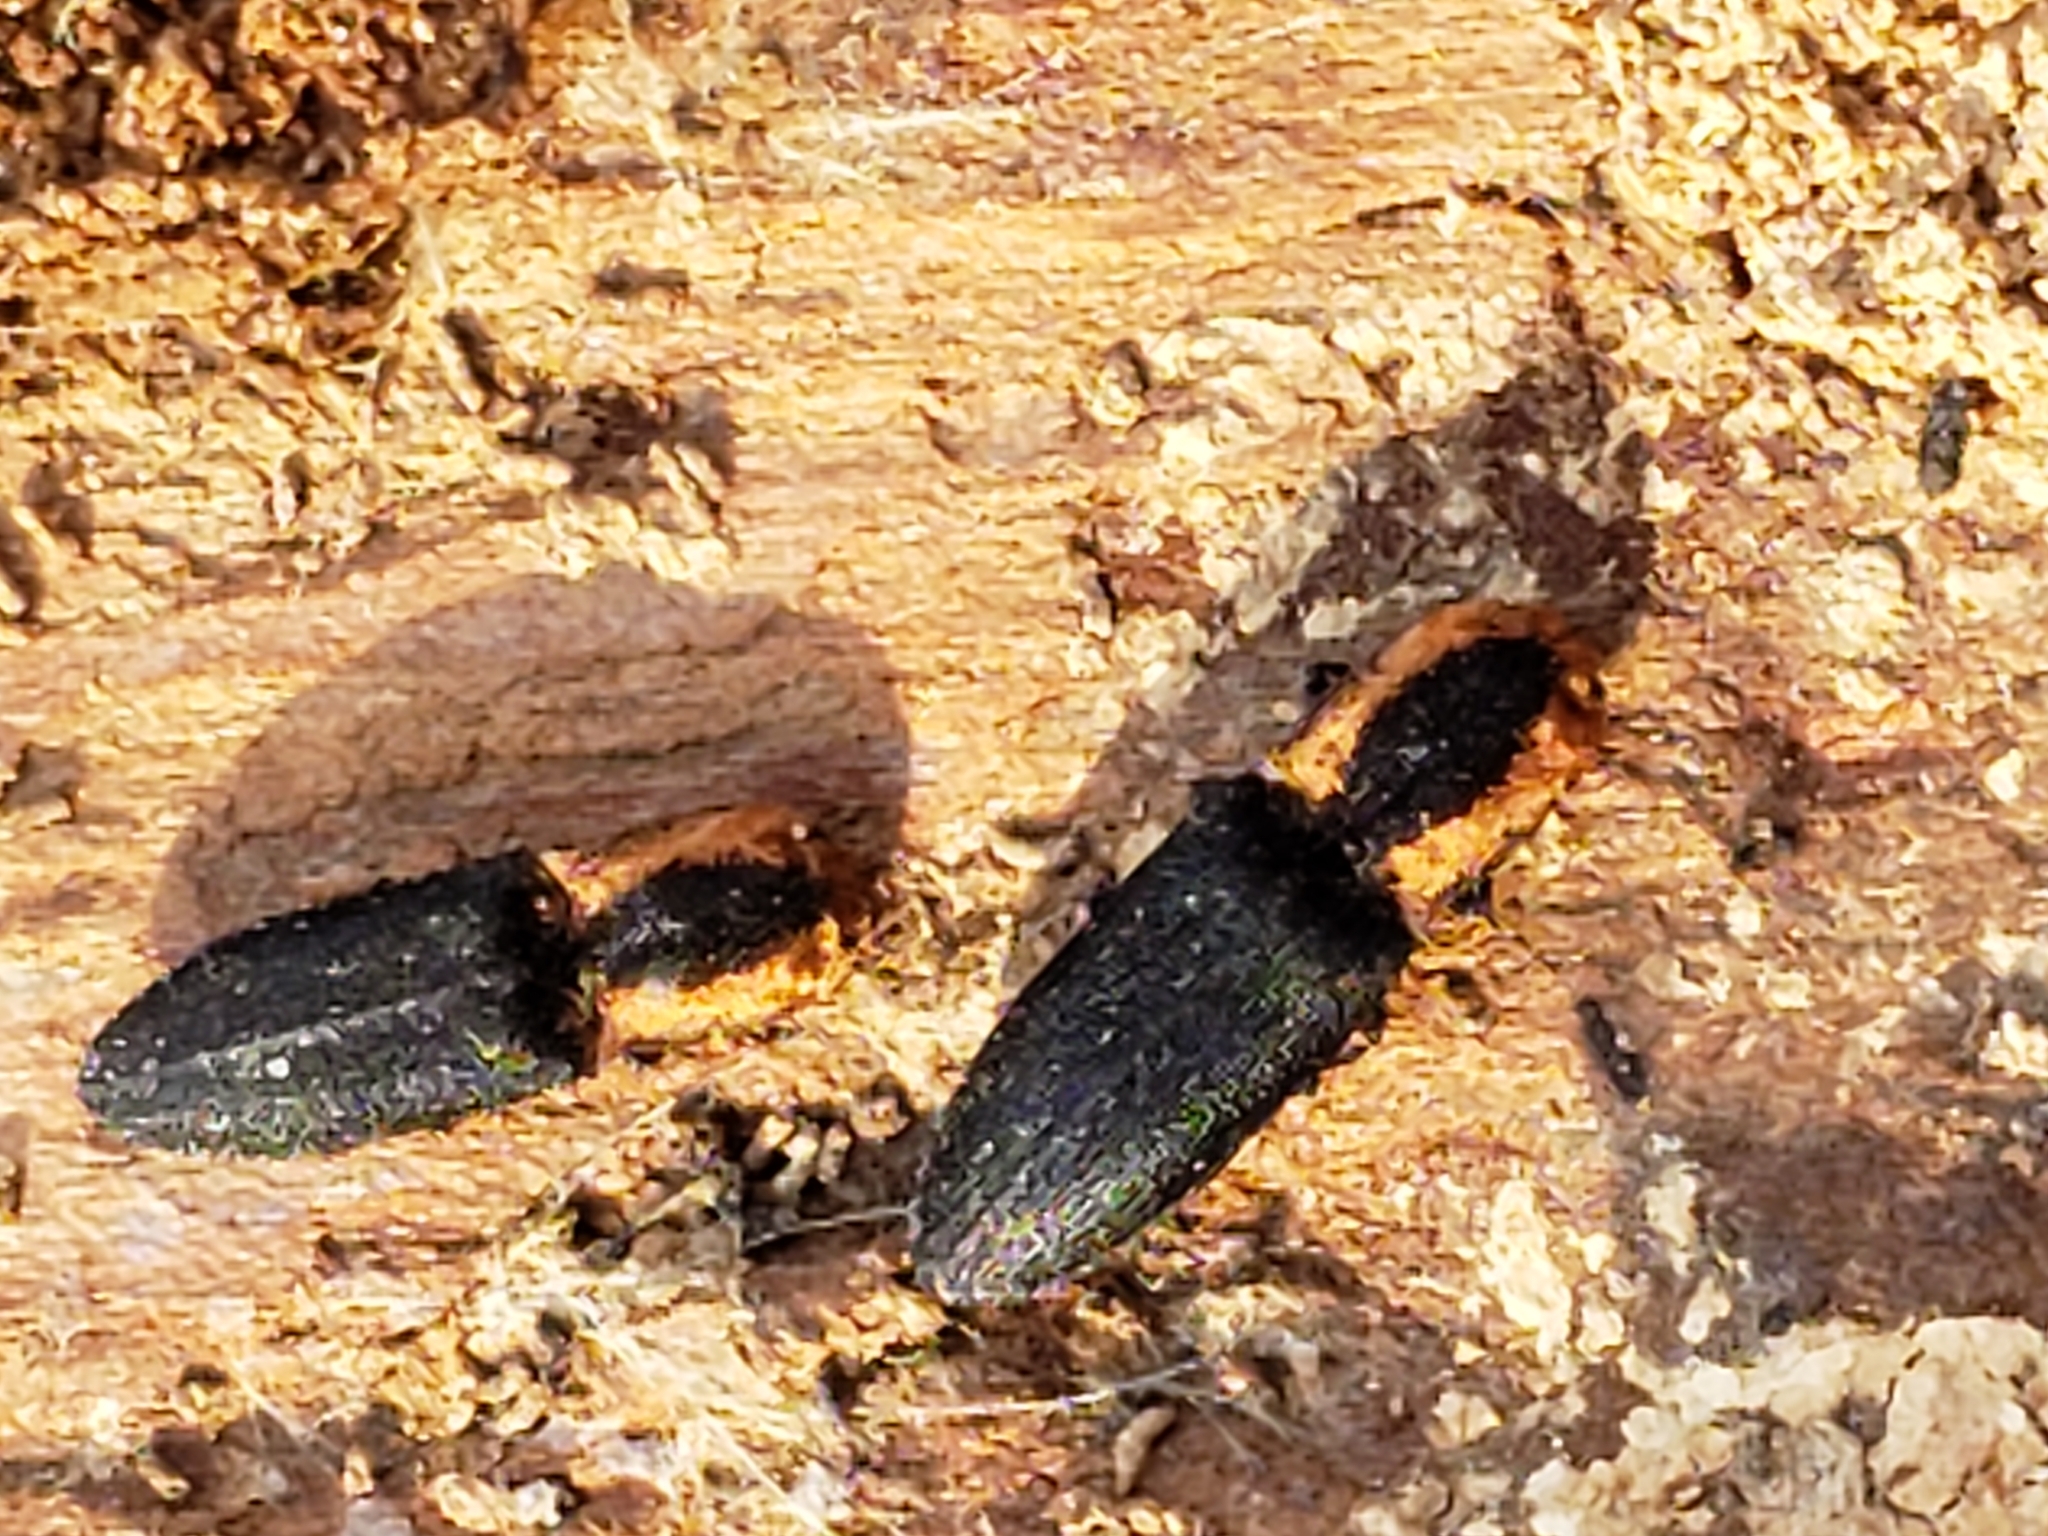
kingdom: Animalia
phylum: Arthropoda
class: Insecta
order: Coleoptera
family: Elateridae
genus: Lacon
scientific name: Lacon discoideus
